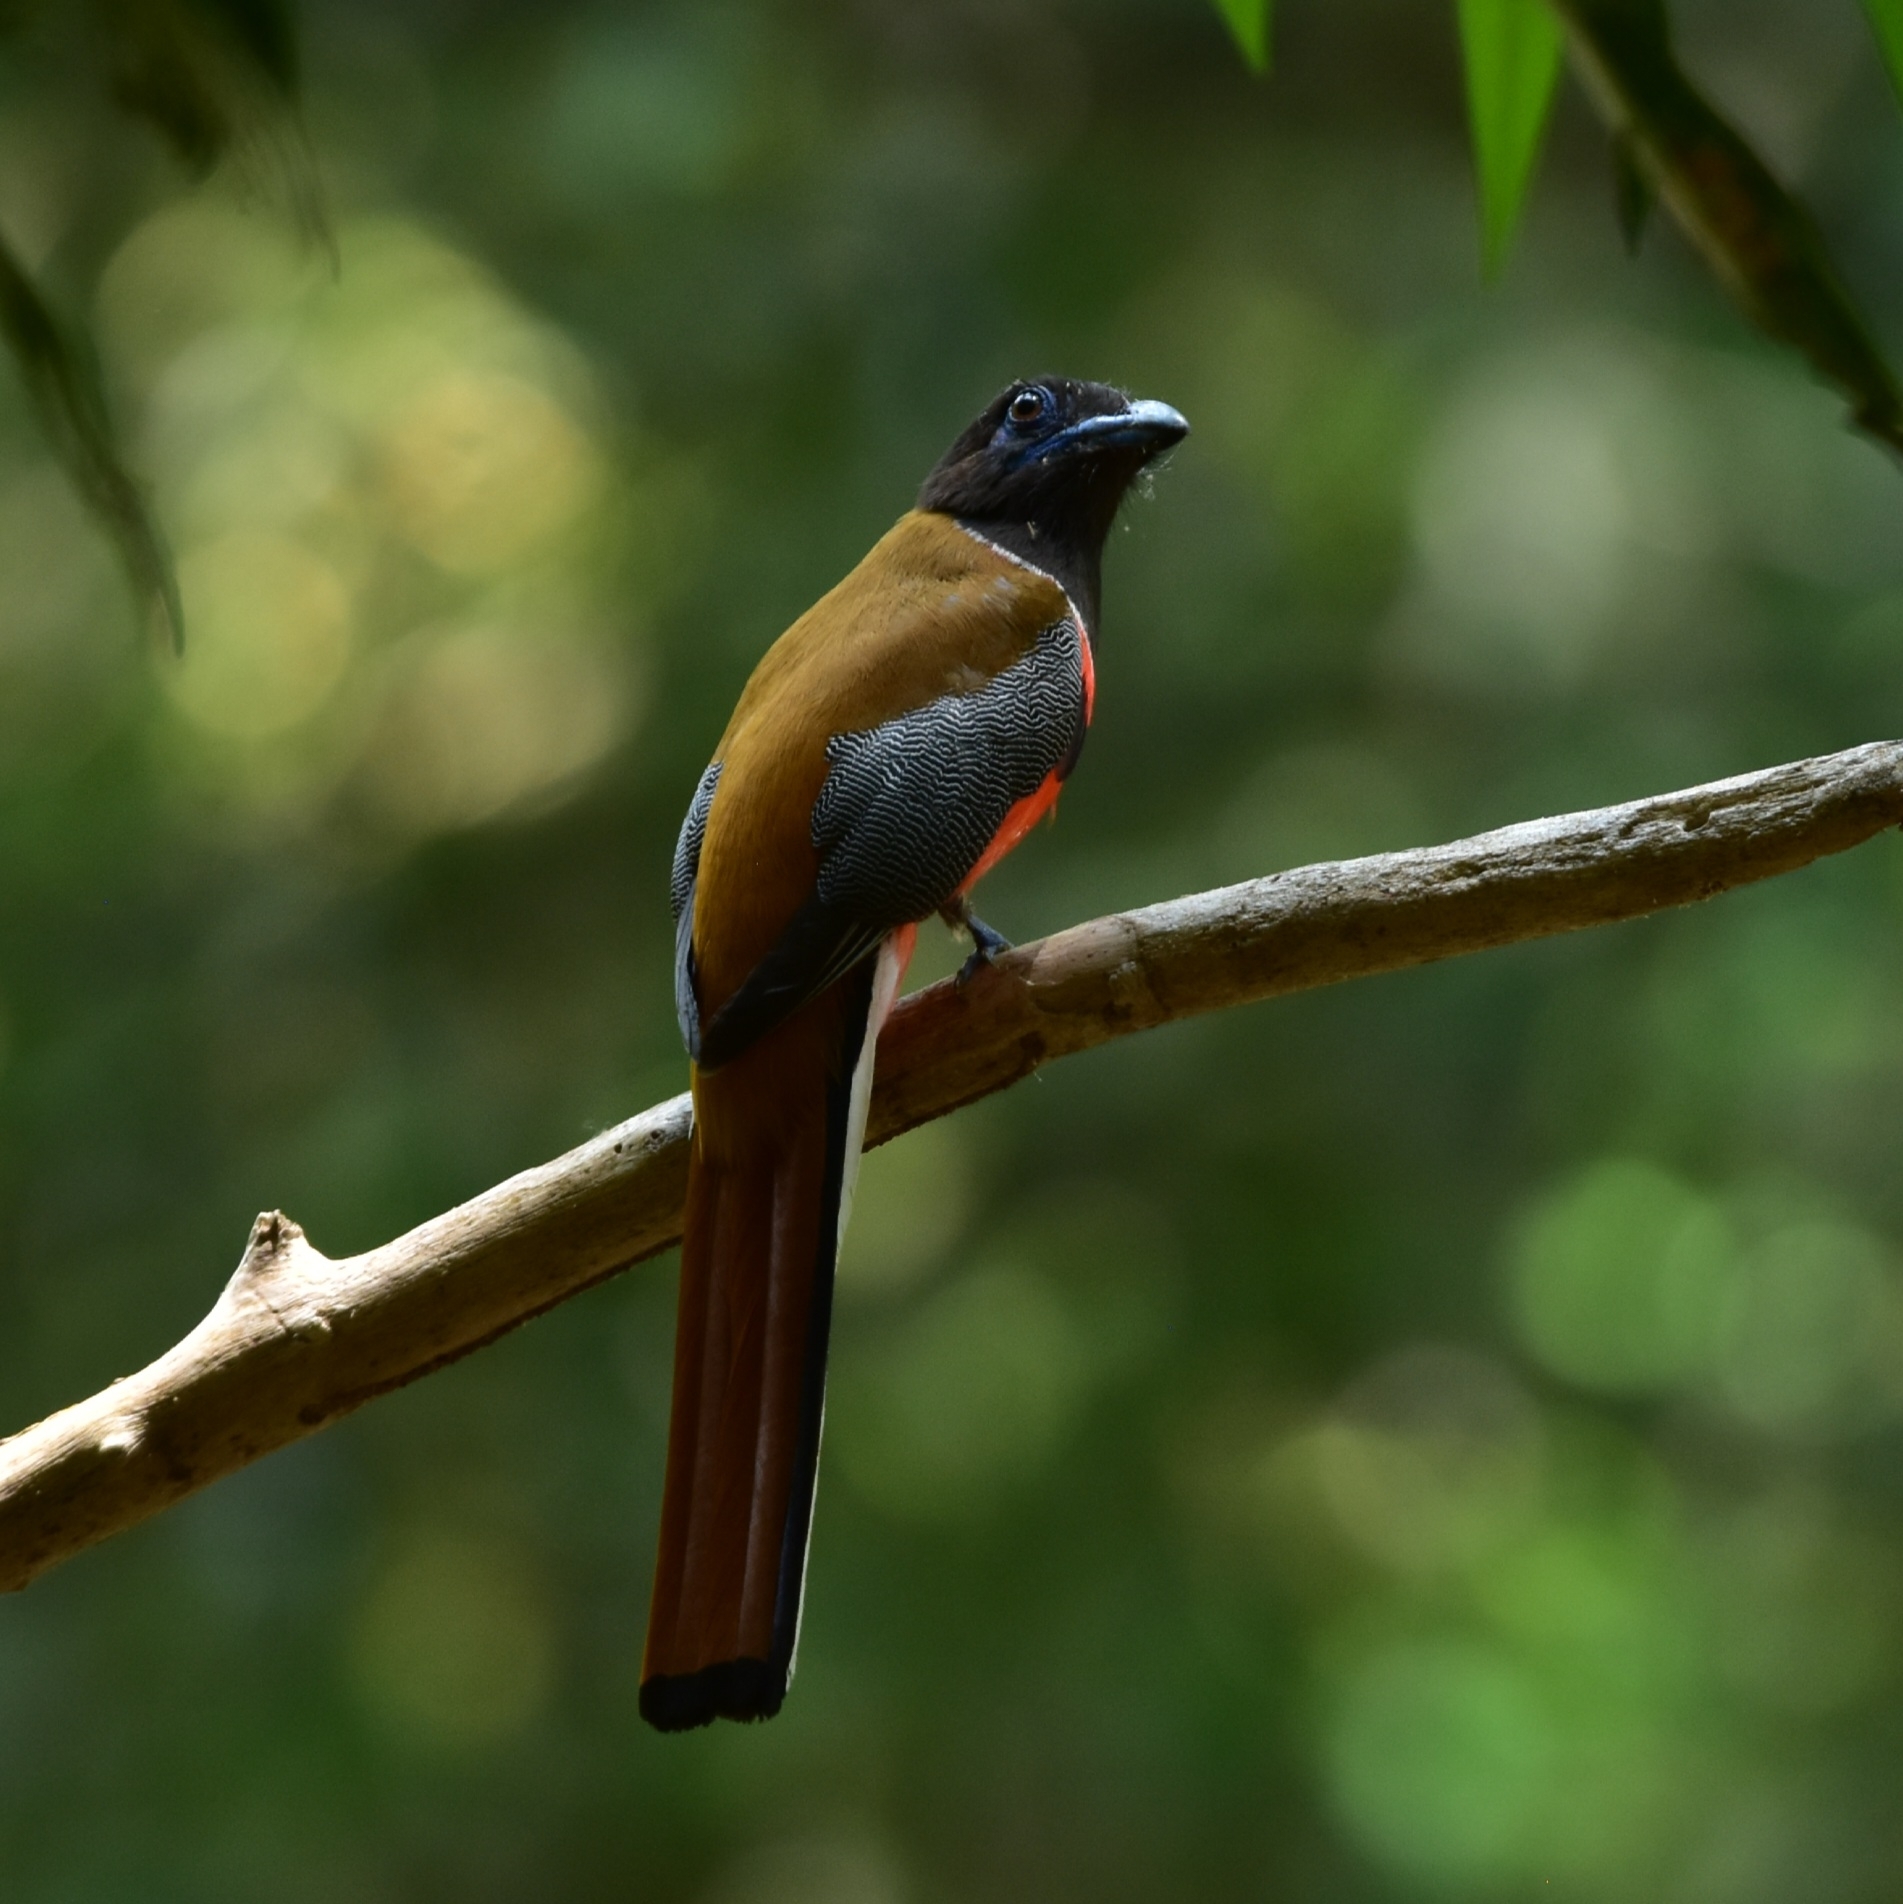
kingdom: Animalia
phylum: Chordata
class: Aves
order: Trogoniformes
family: Trogonidae
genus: Harpactes
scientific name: Harpactes fasciatus
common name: Malabar trogon
